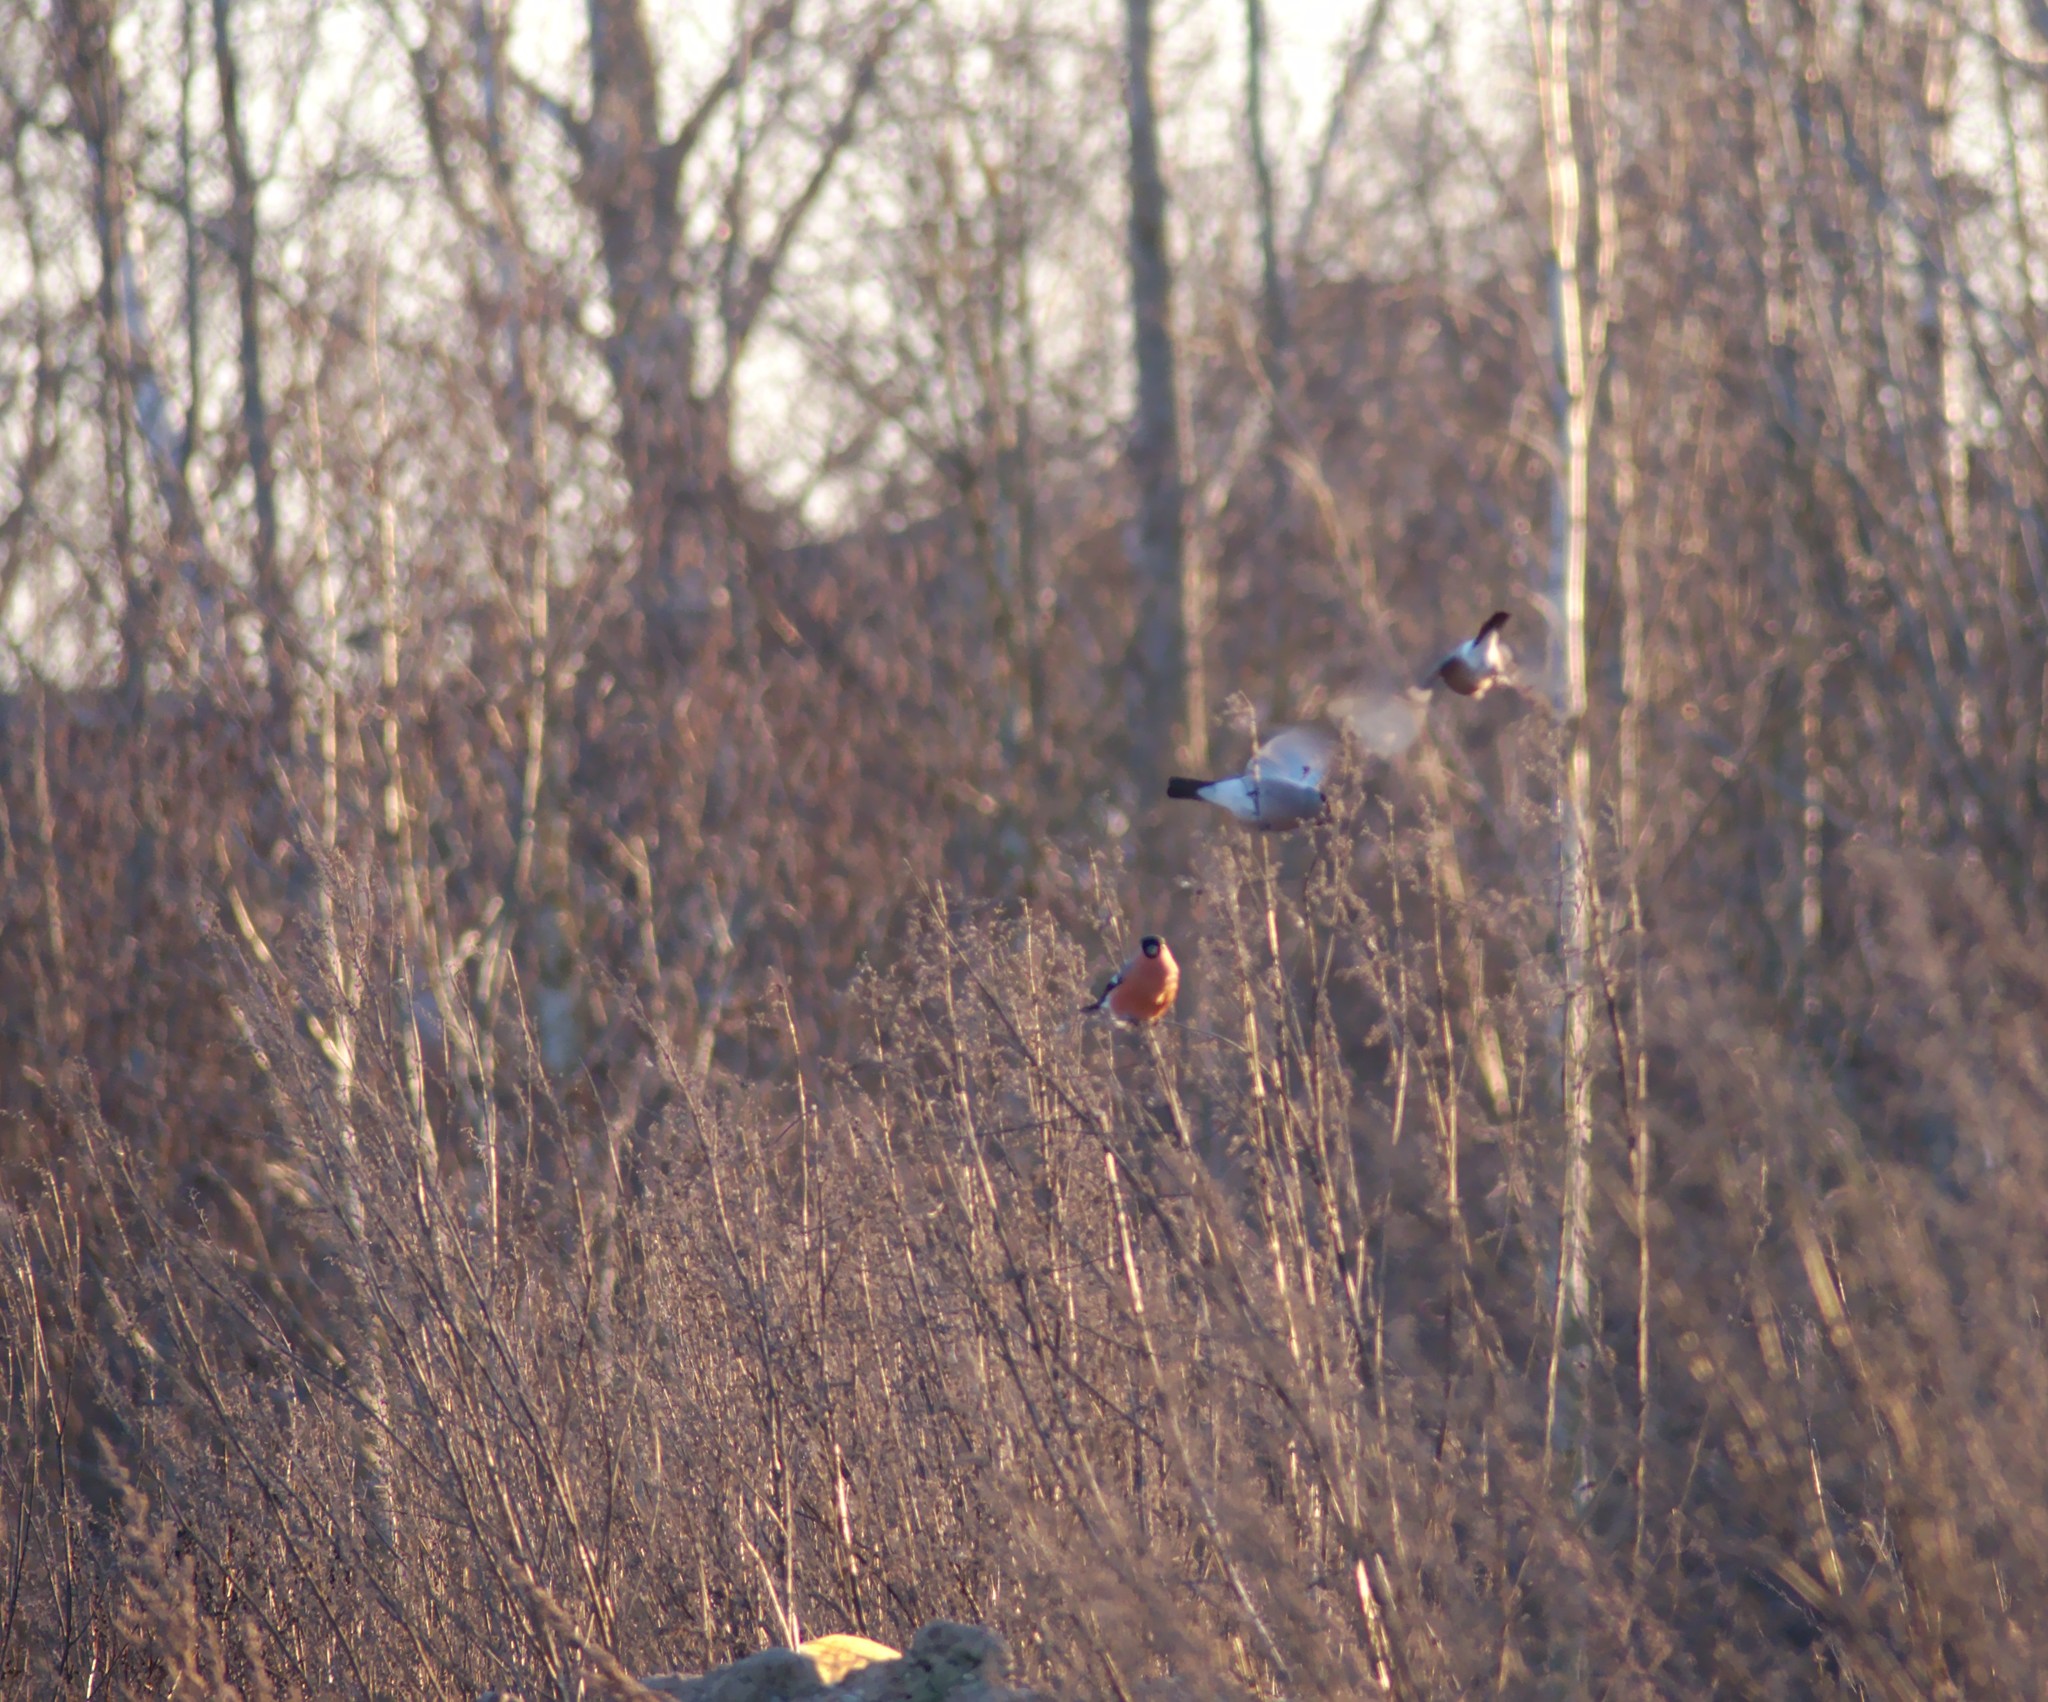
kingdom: Animalia
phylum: Chordata
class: Aves
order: Passeriformes
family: Fringillidae
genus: Pyrrhula
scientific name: Pyrrhula pyrrhula
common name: Eurasian bullfinch
